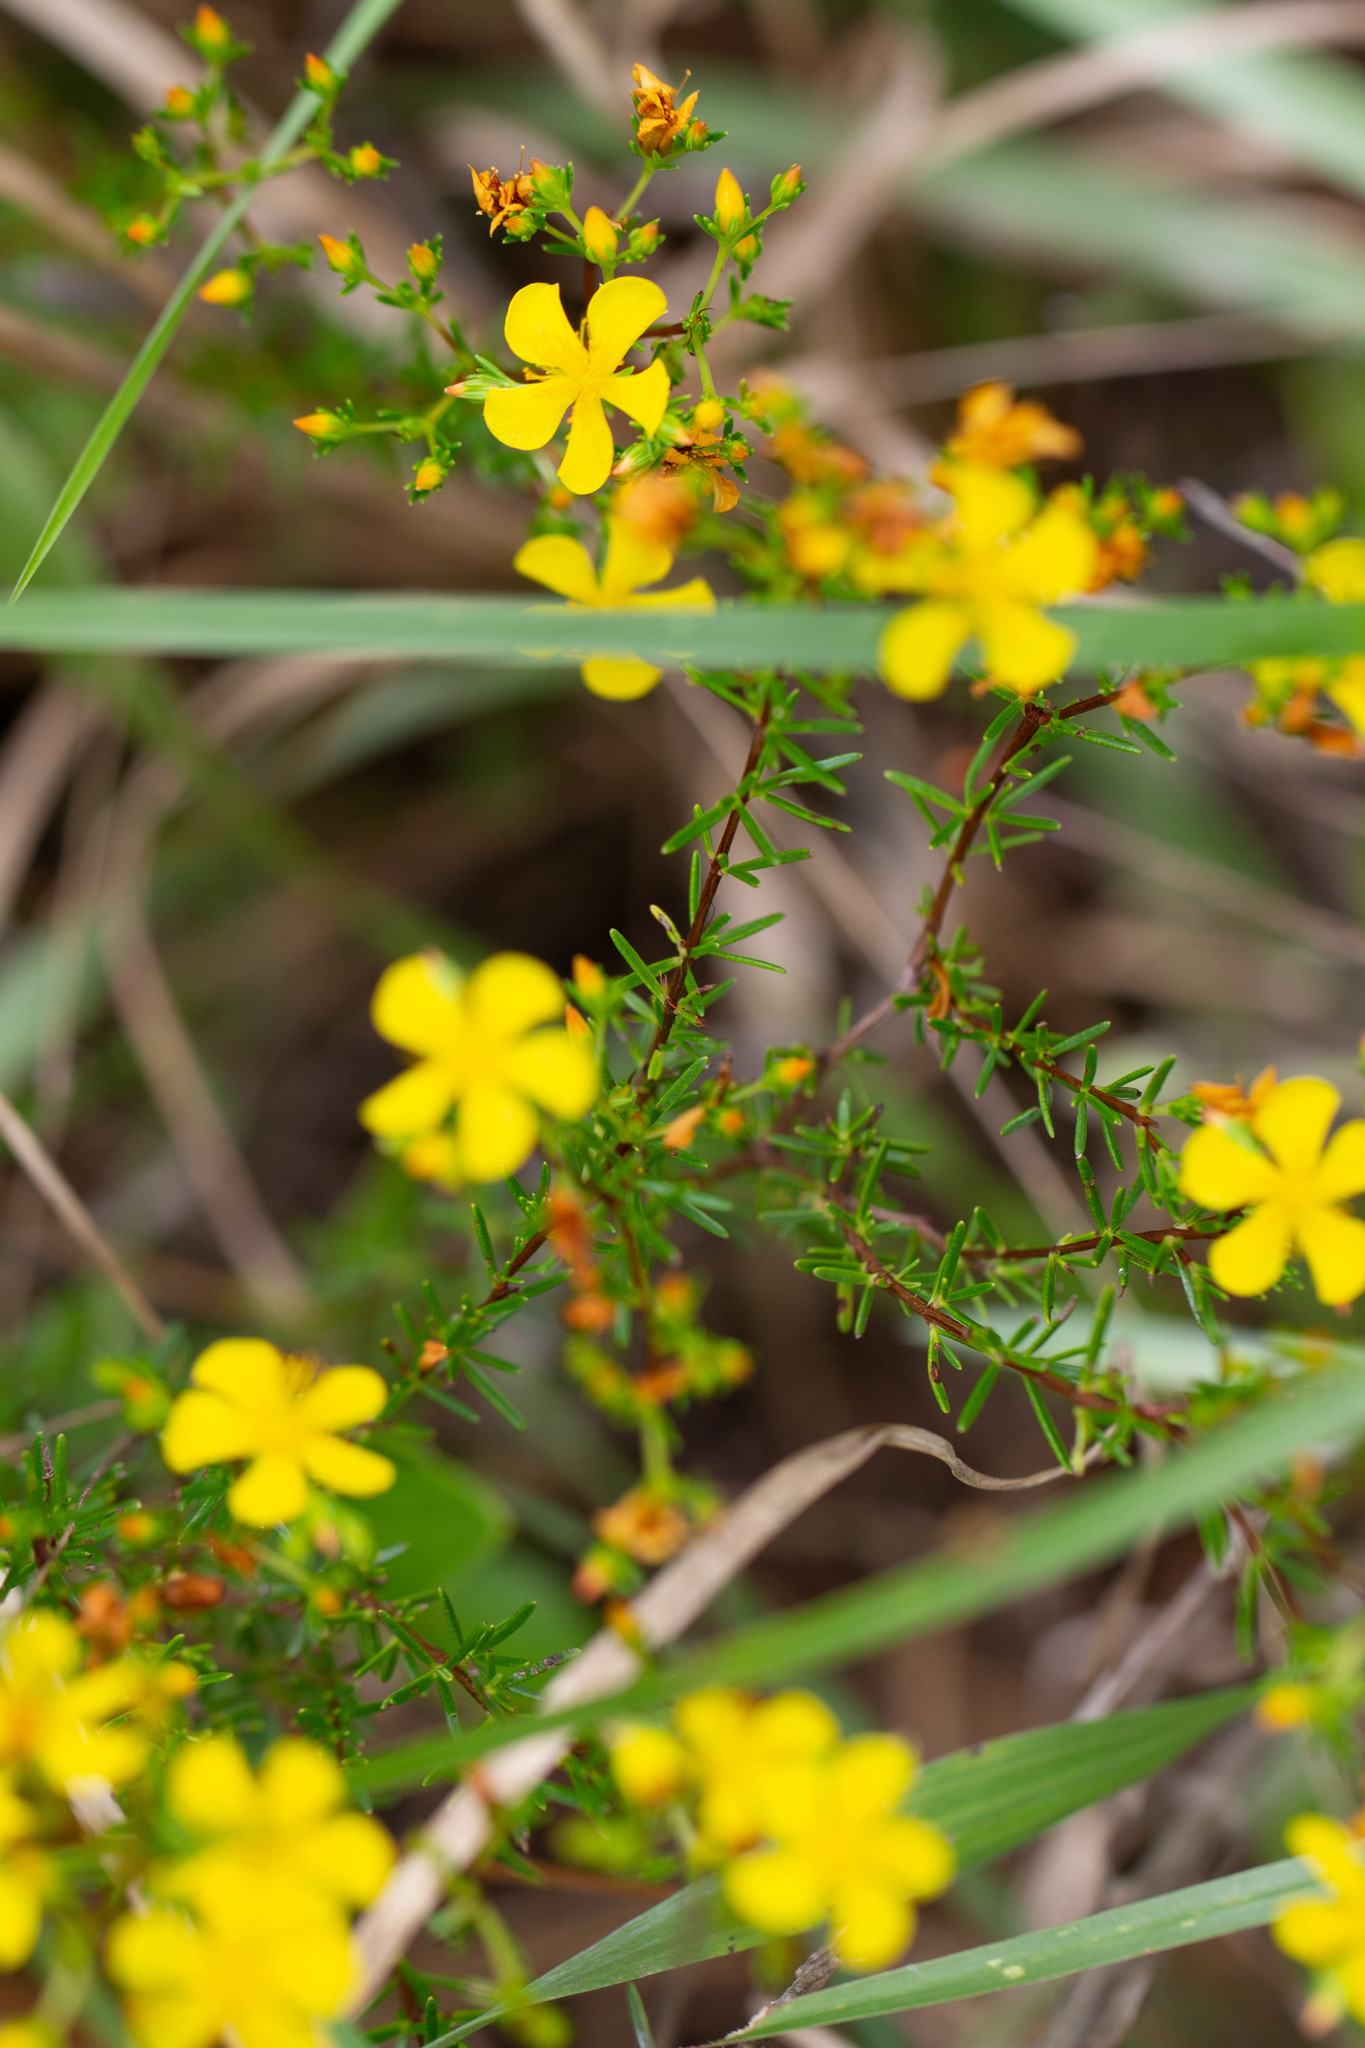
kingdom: Plantae
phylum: Tracheophyta
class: Magnoliopsida
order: Malpighiales
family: Hypericaceae
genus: Hypericum
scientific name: Hypericum brachyphyllum
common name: Coastal plain st. john's-wort
